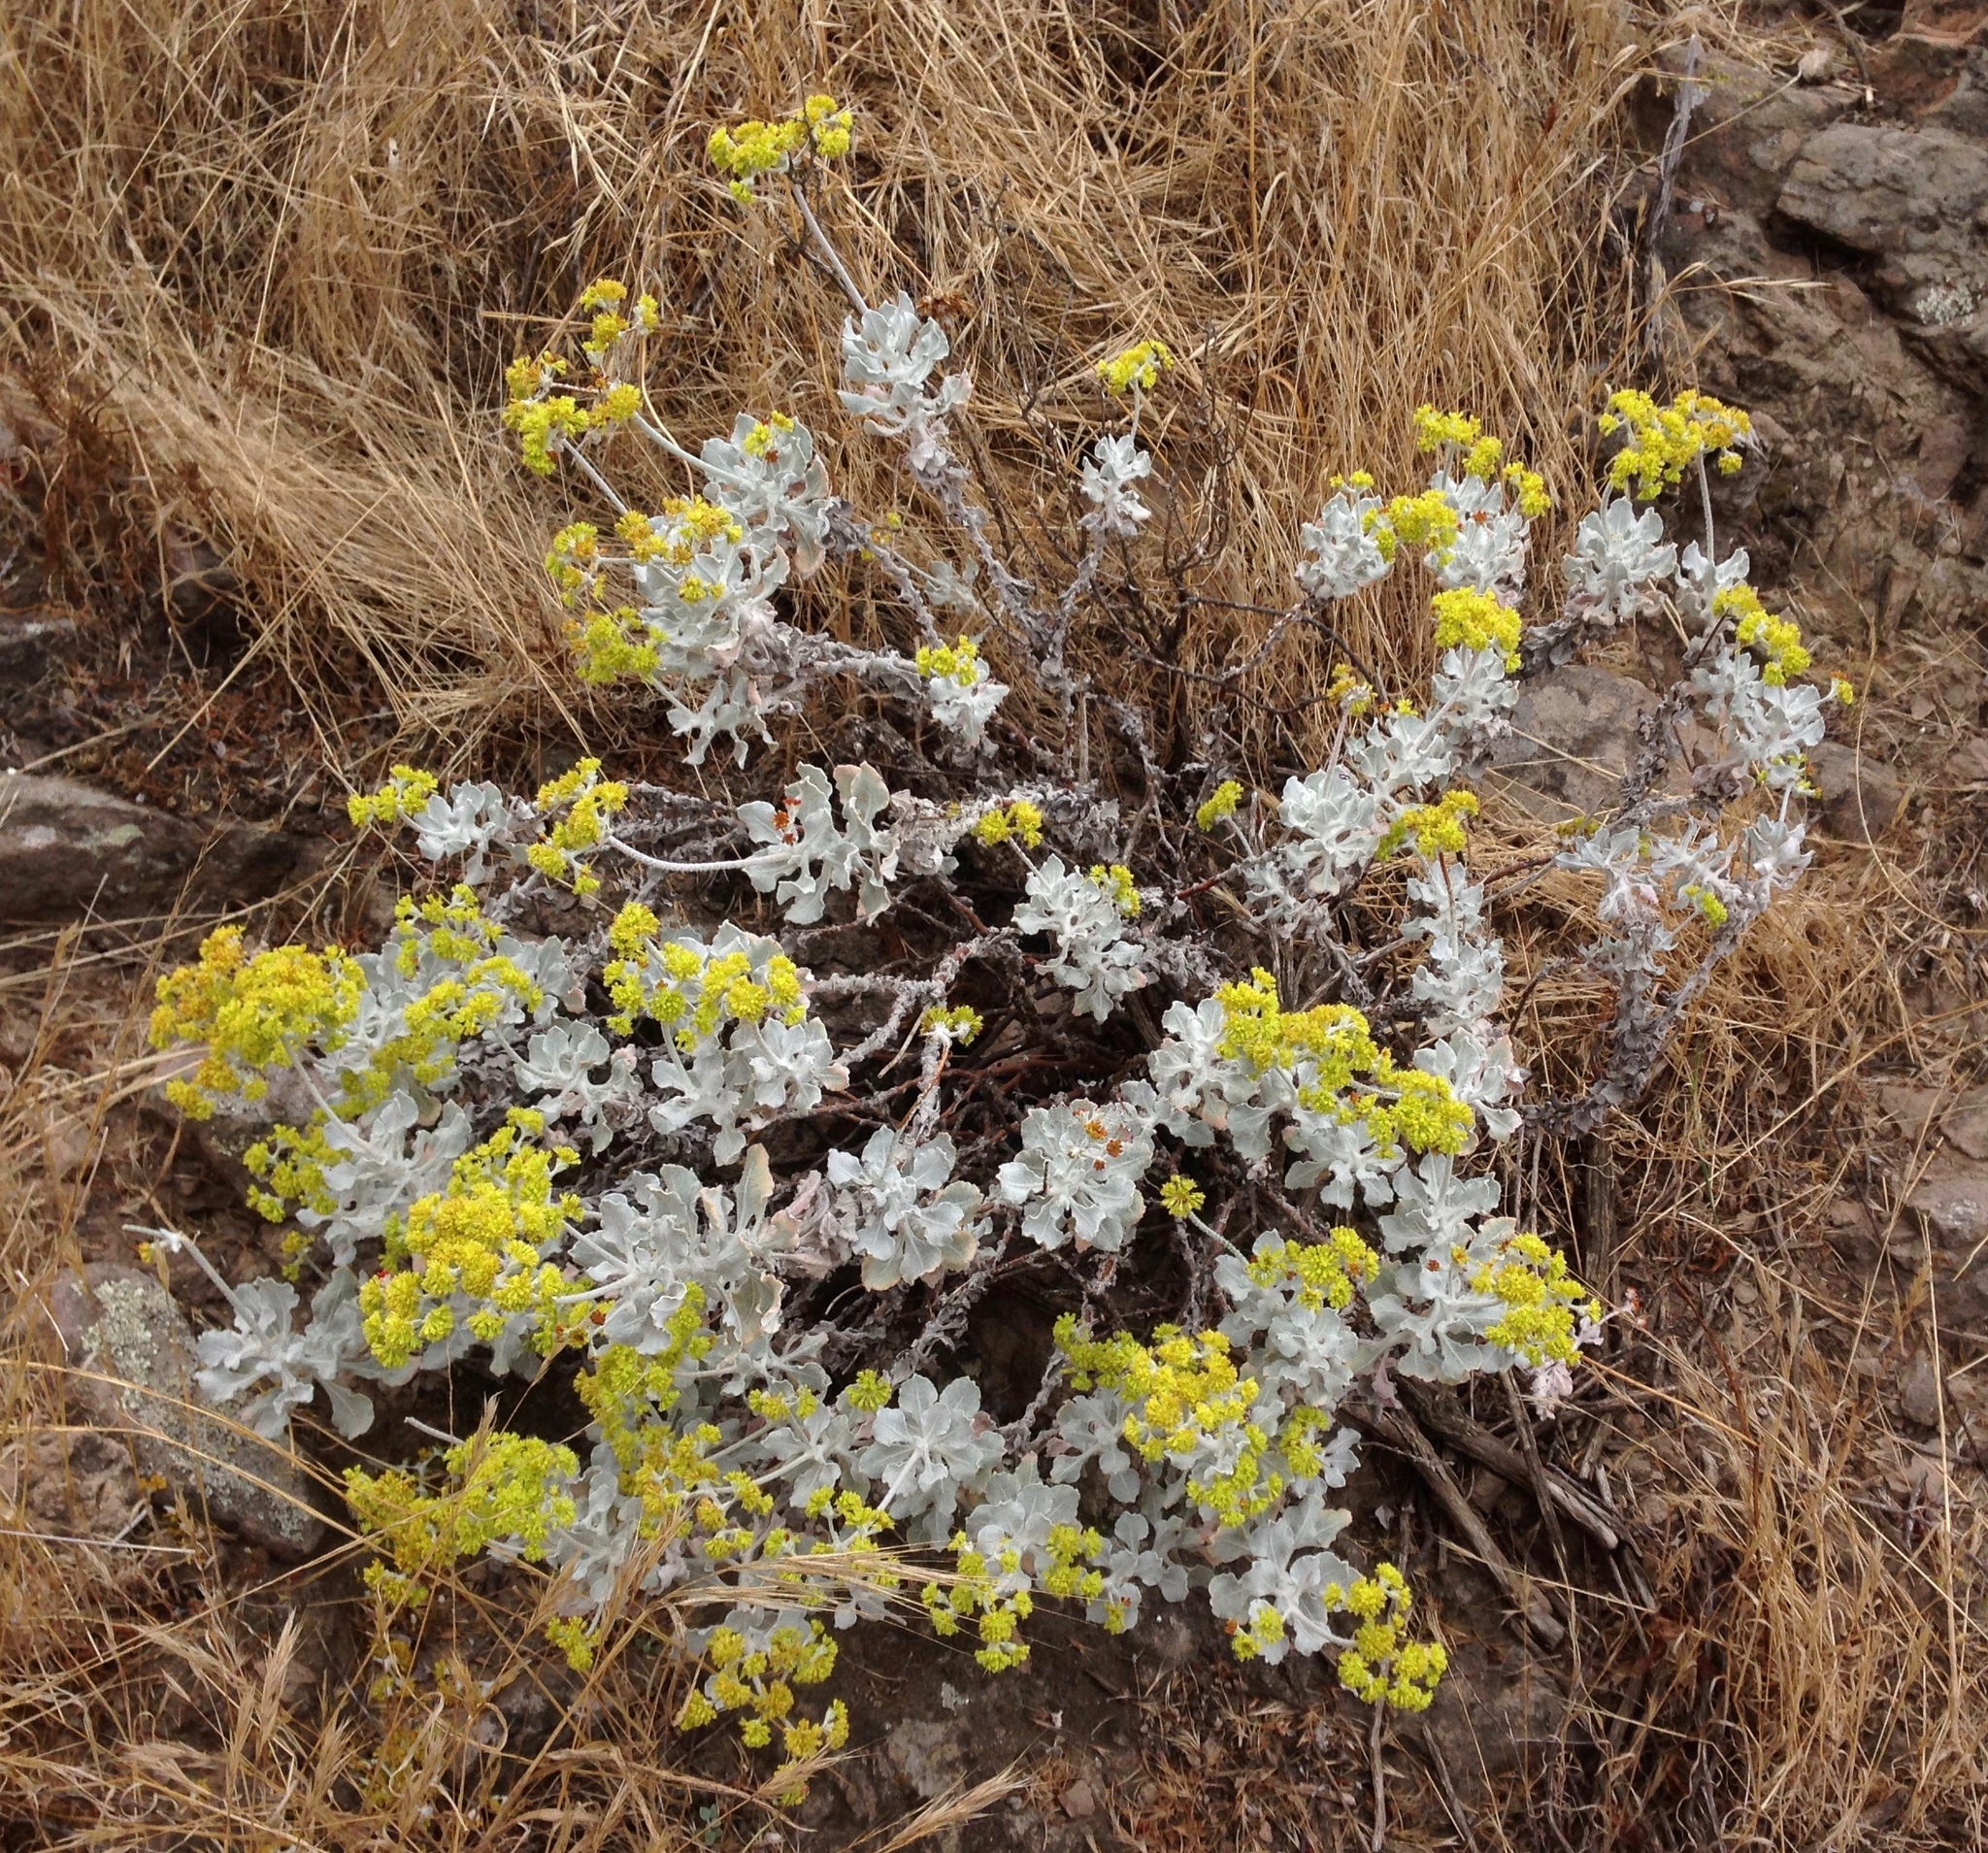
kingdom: Plantae
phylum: Tracheophyta
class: Magnoliopsida
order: Caryophyllales
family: Polygonaceae
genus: Eriogonum
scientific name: Eriogonum crocatum
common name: Saffron wild buckwheat
